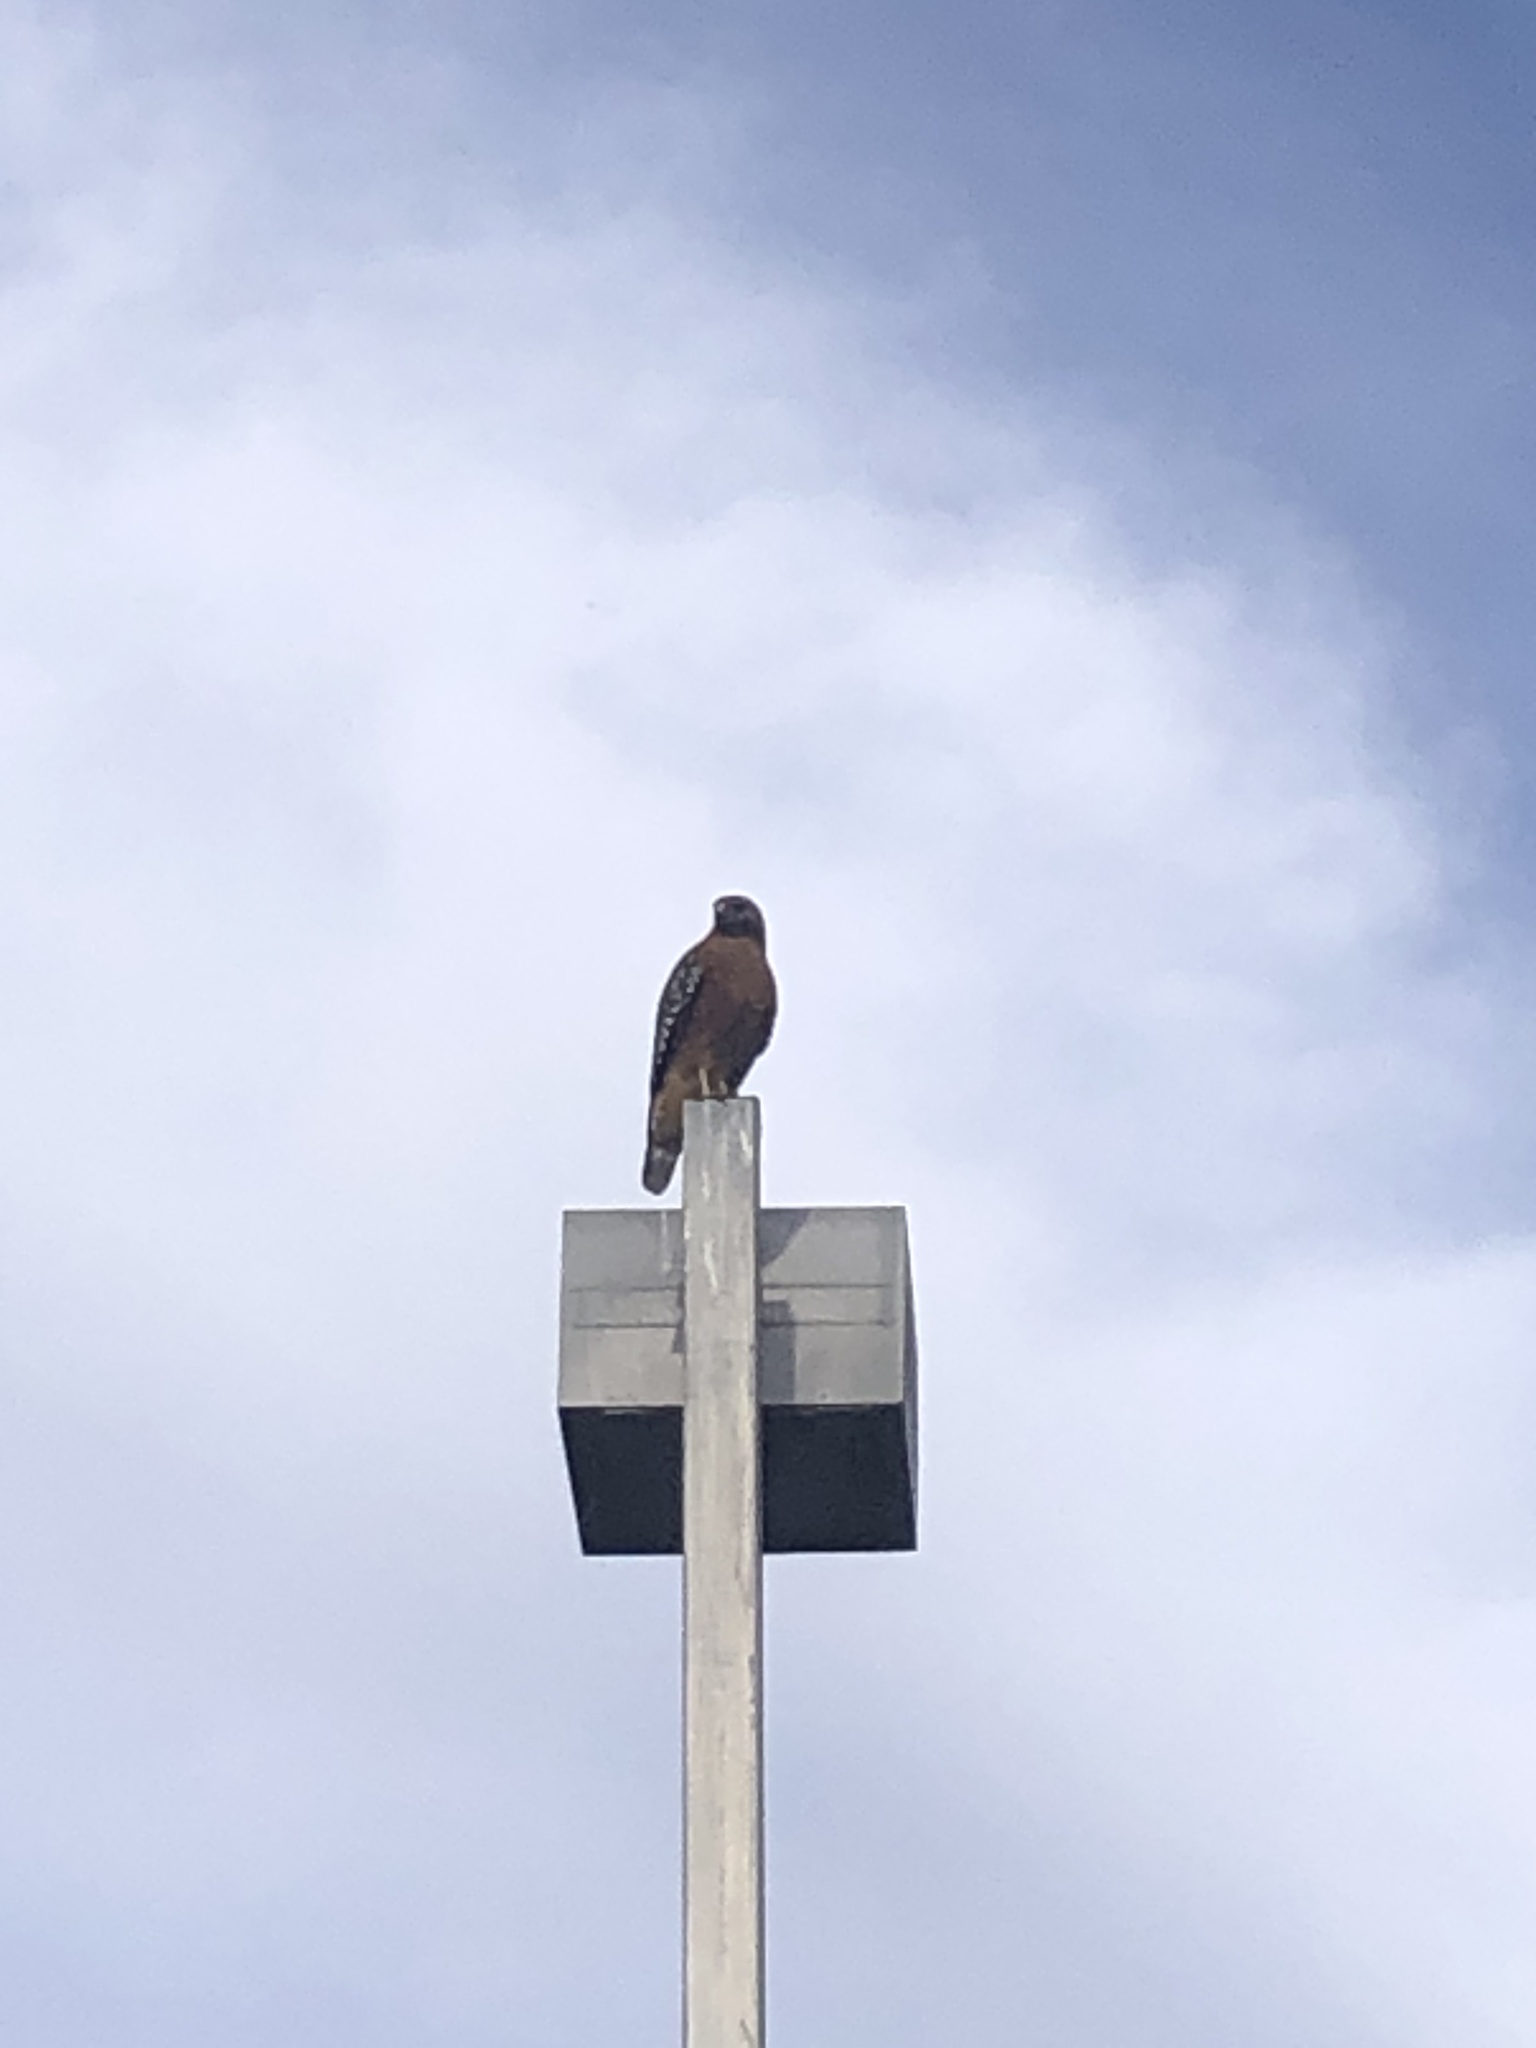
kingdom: Animalia
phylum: Chordata
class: Aves
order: Accipitriformes
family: Accipitridae
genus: Buteo
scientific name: Buteo lineatus
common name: Red-shouldered hawk
